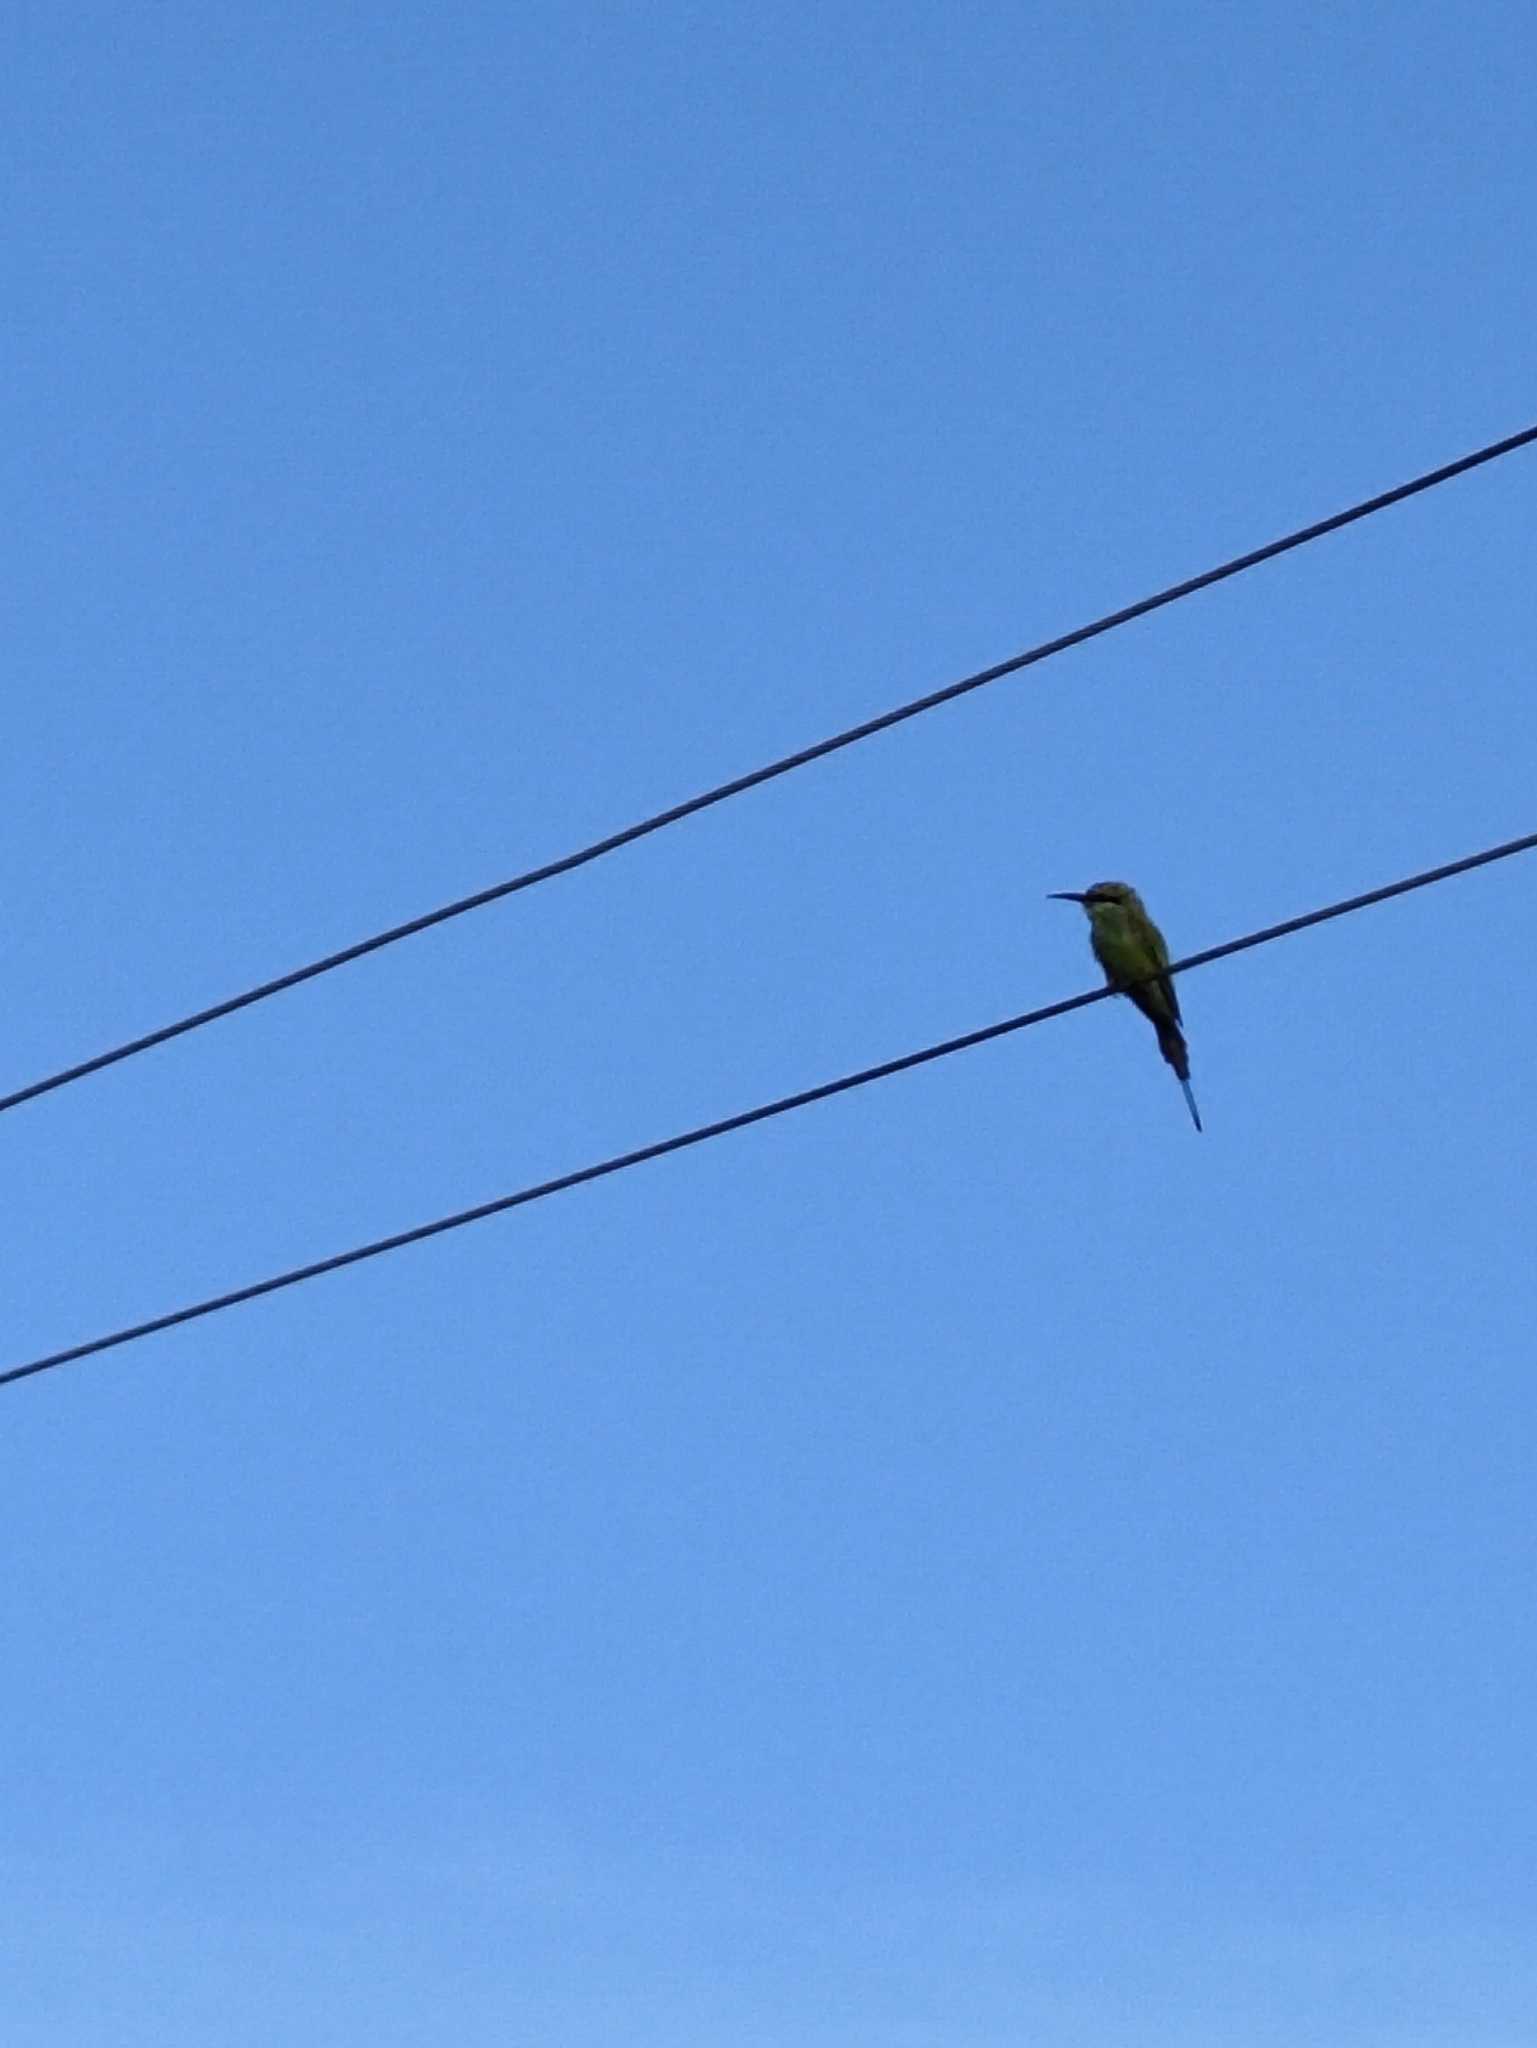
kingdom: Animalia
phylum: Chordata
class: Aves
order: Coraciiformes
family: Meropidae
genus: Merops
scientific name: Merops orientalis
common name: Green bee-eater
